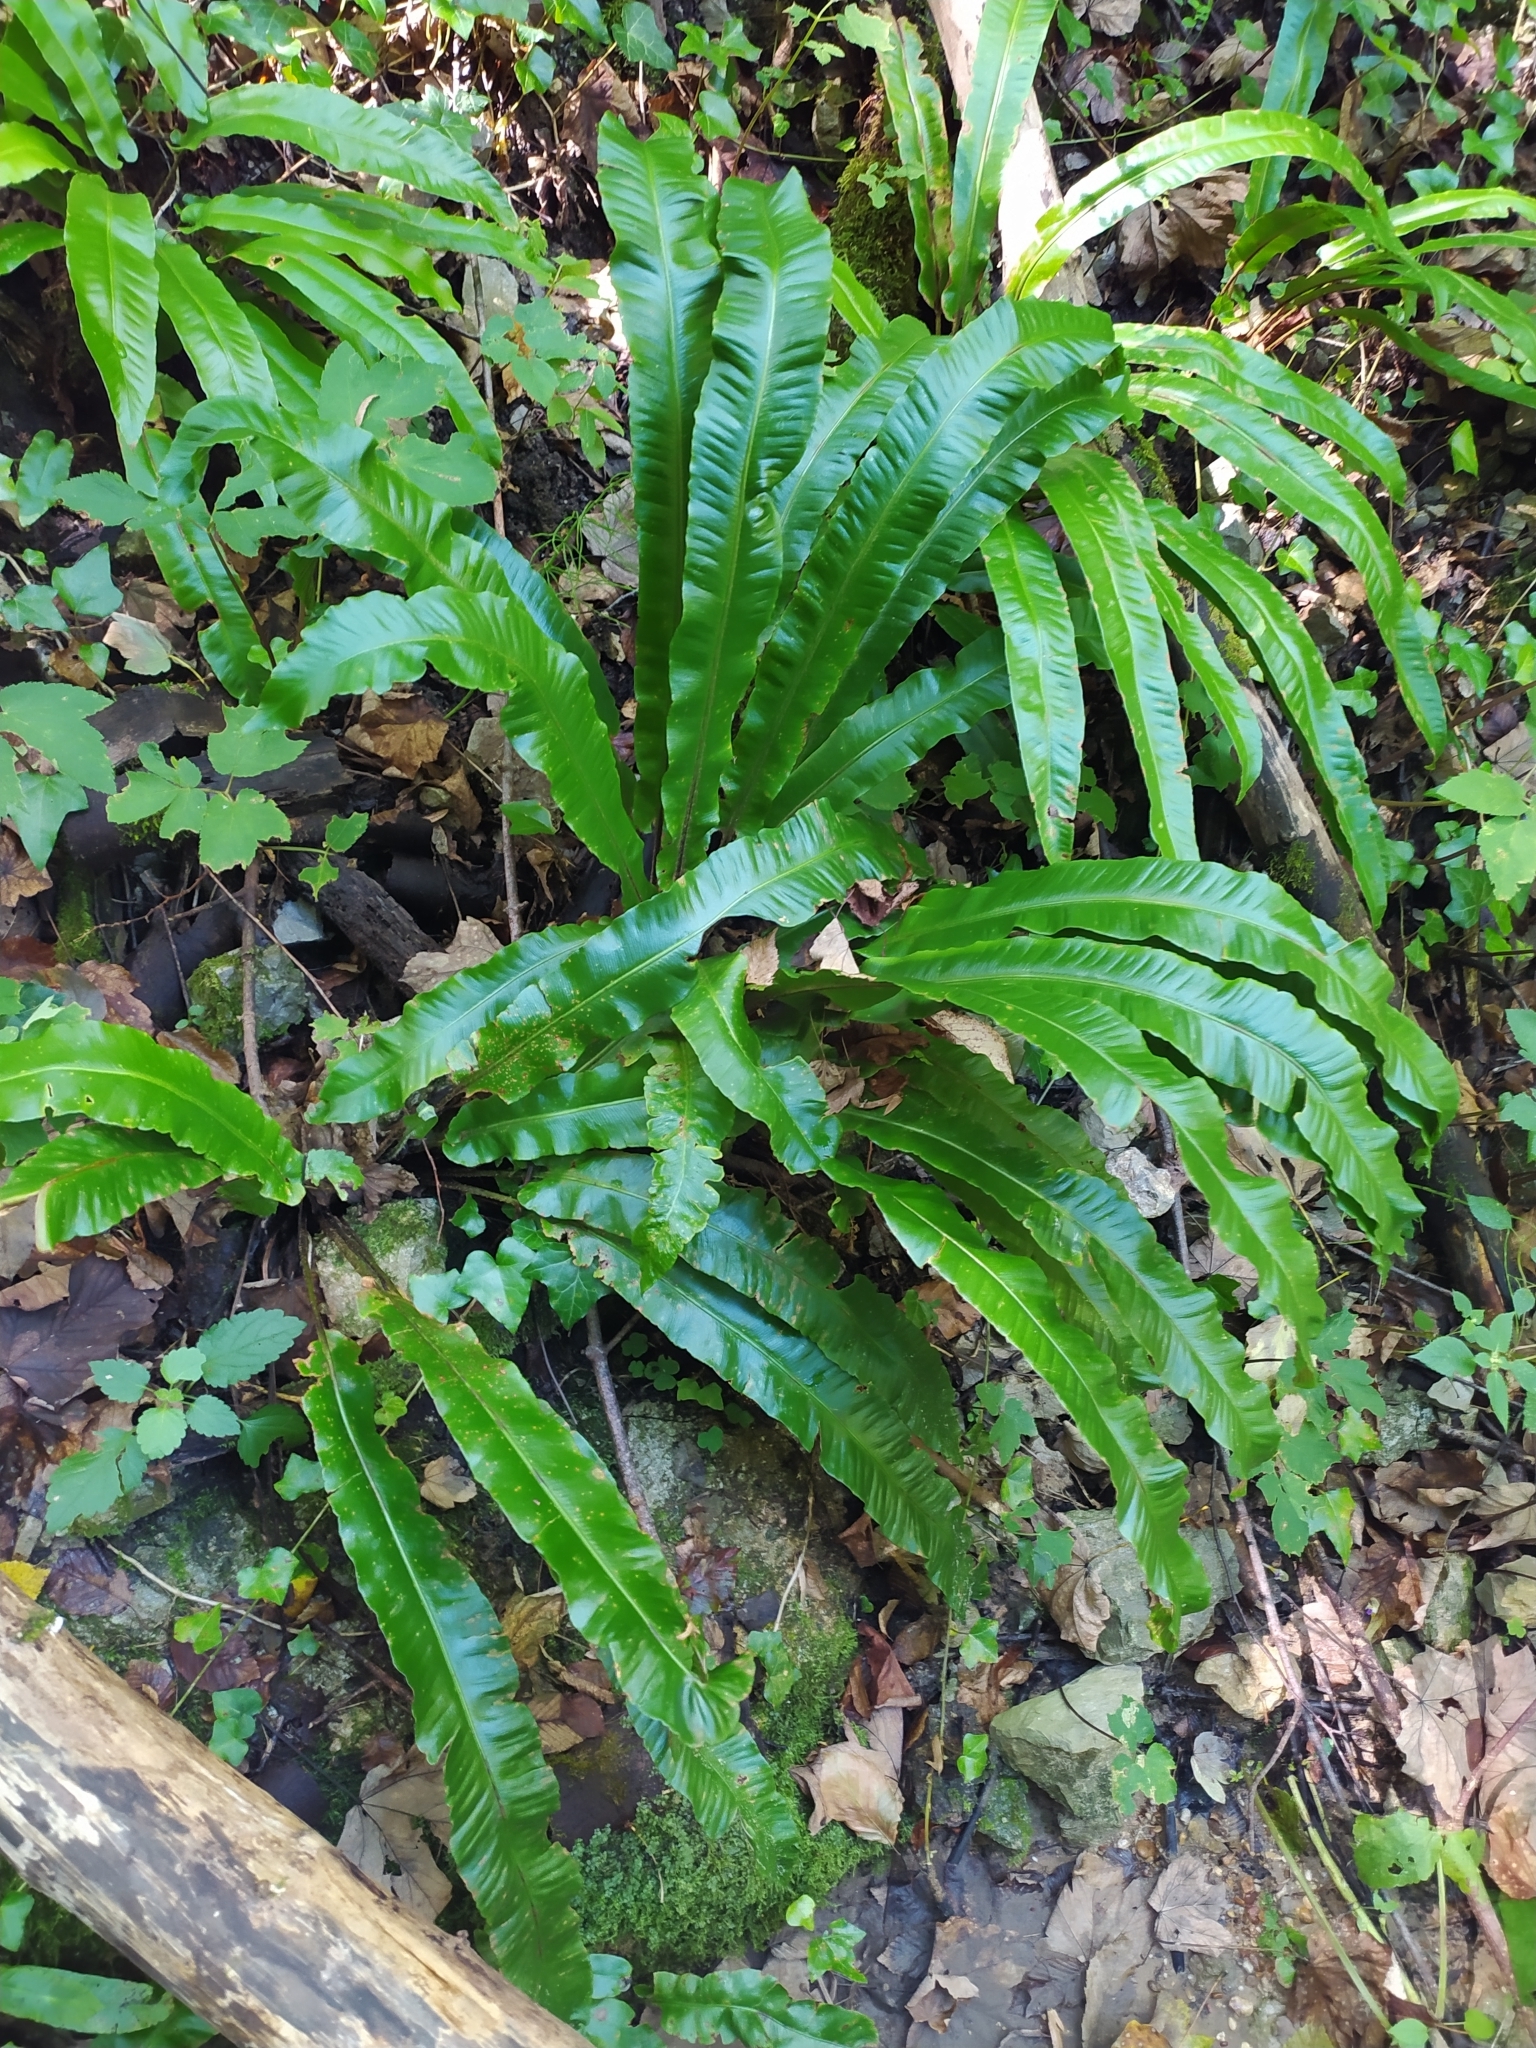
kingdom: Plantae
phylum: Tracheophyta
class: Polypodiopsida
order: Polypodiales
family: Aspleniaceae
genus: Asplenium
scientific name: Asplenium scolopendrium
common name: Hart's-tongue fern
